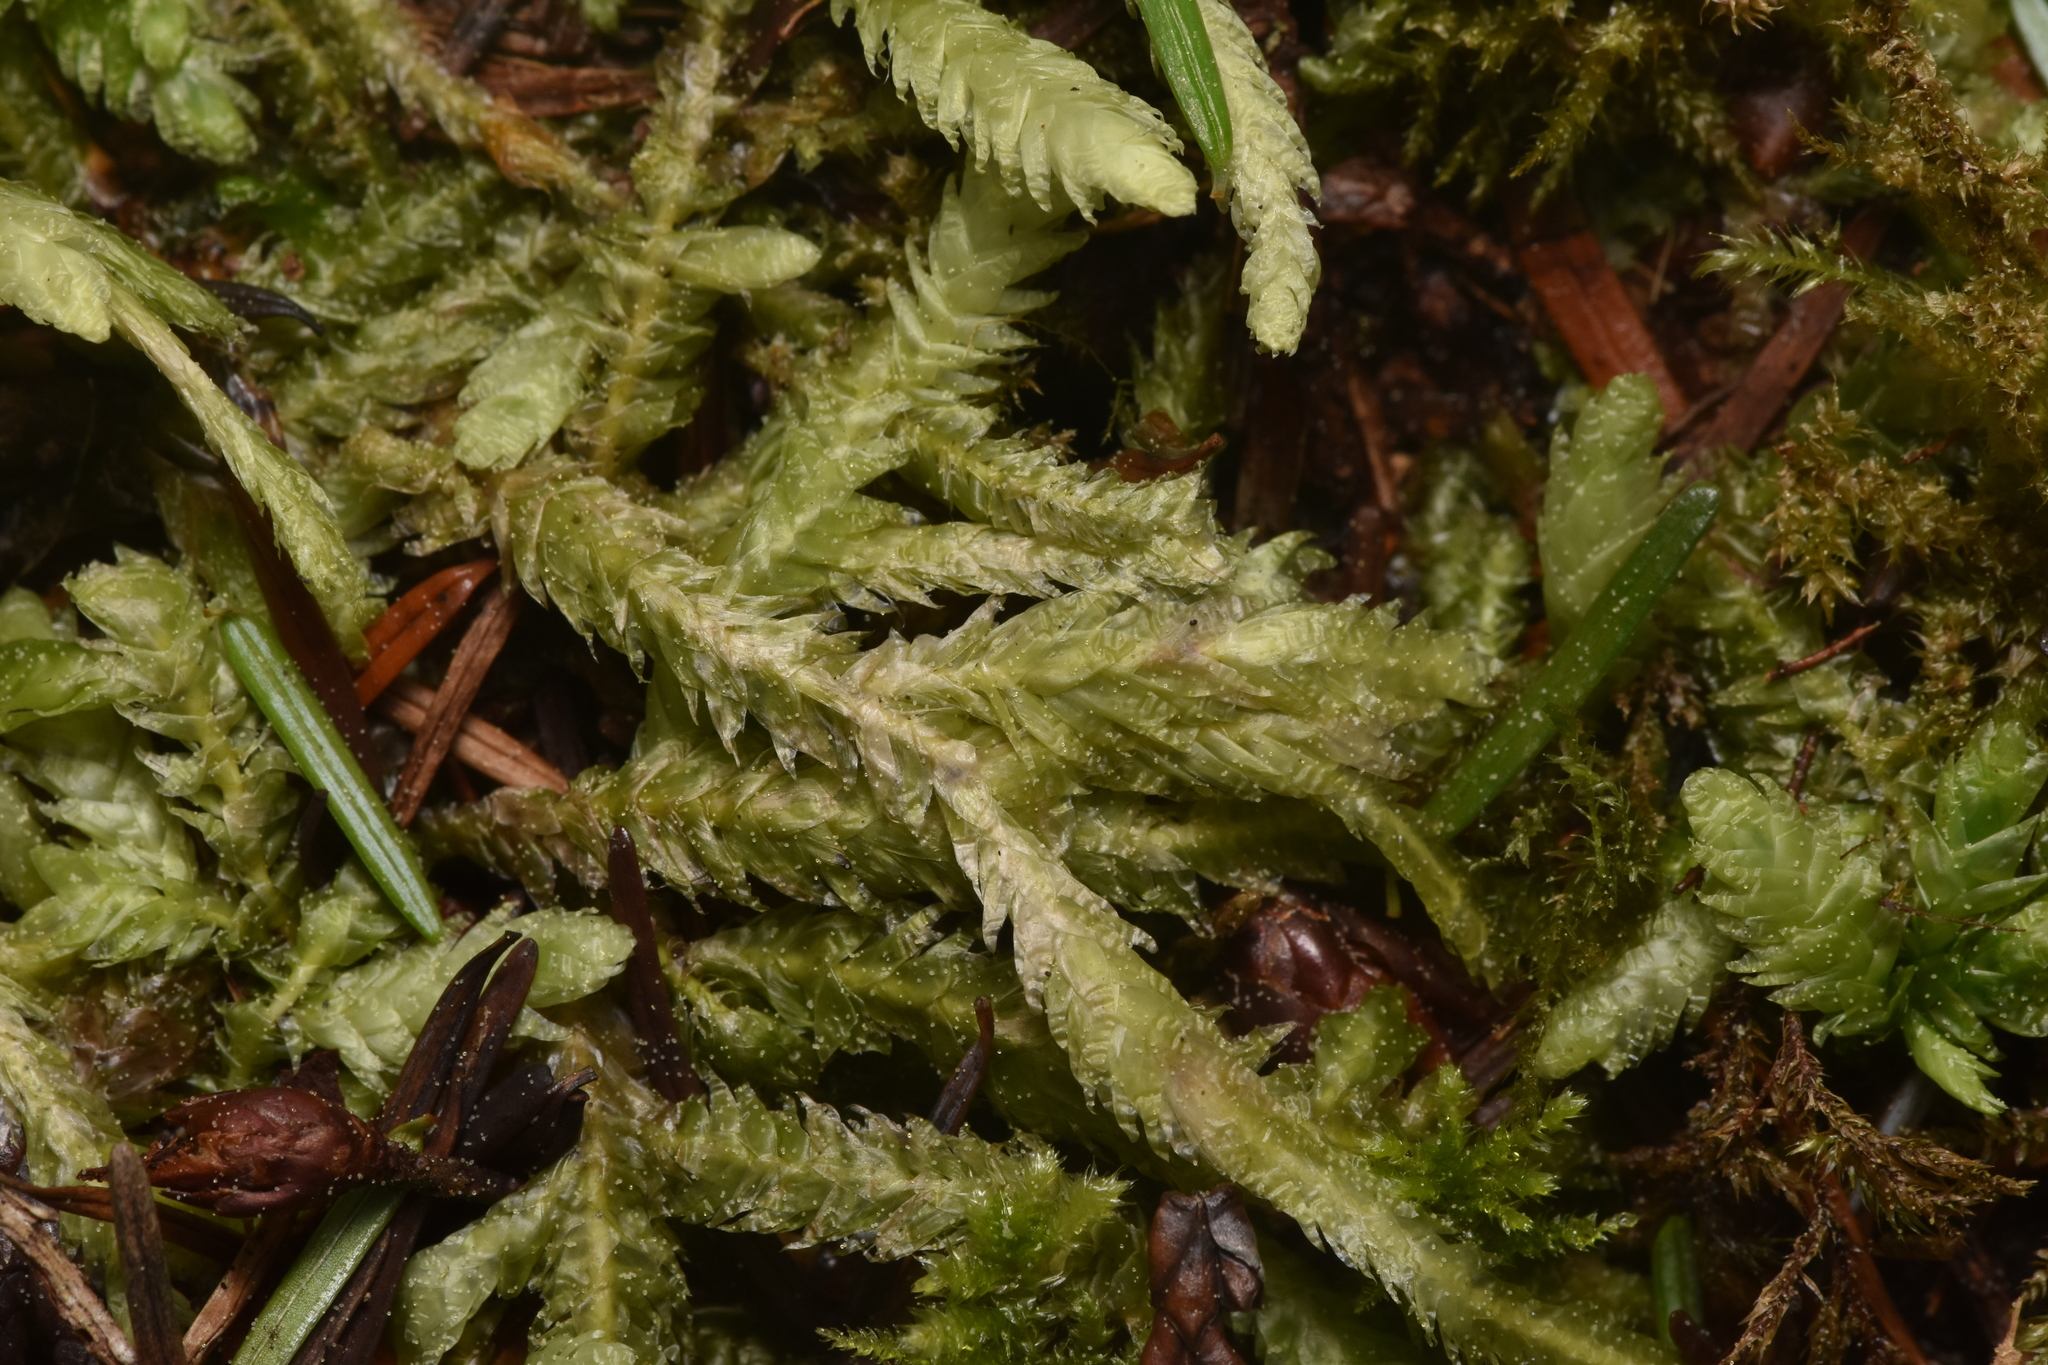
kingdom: Plantae
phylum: Bryophyta
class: Bryopsida
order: Hypnales
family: Plagiotheciaceae
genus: Plagiothecium
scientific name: Plagiothecium undulatum
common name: Waved silk-moss
